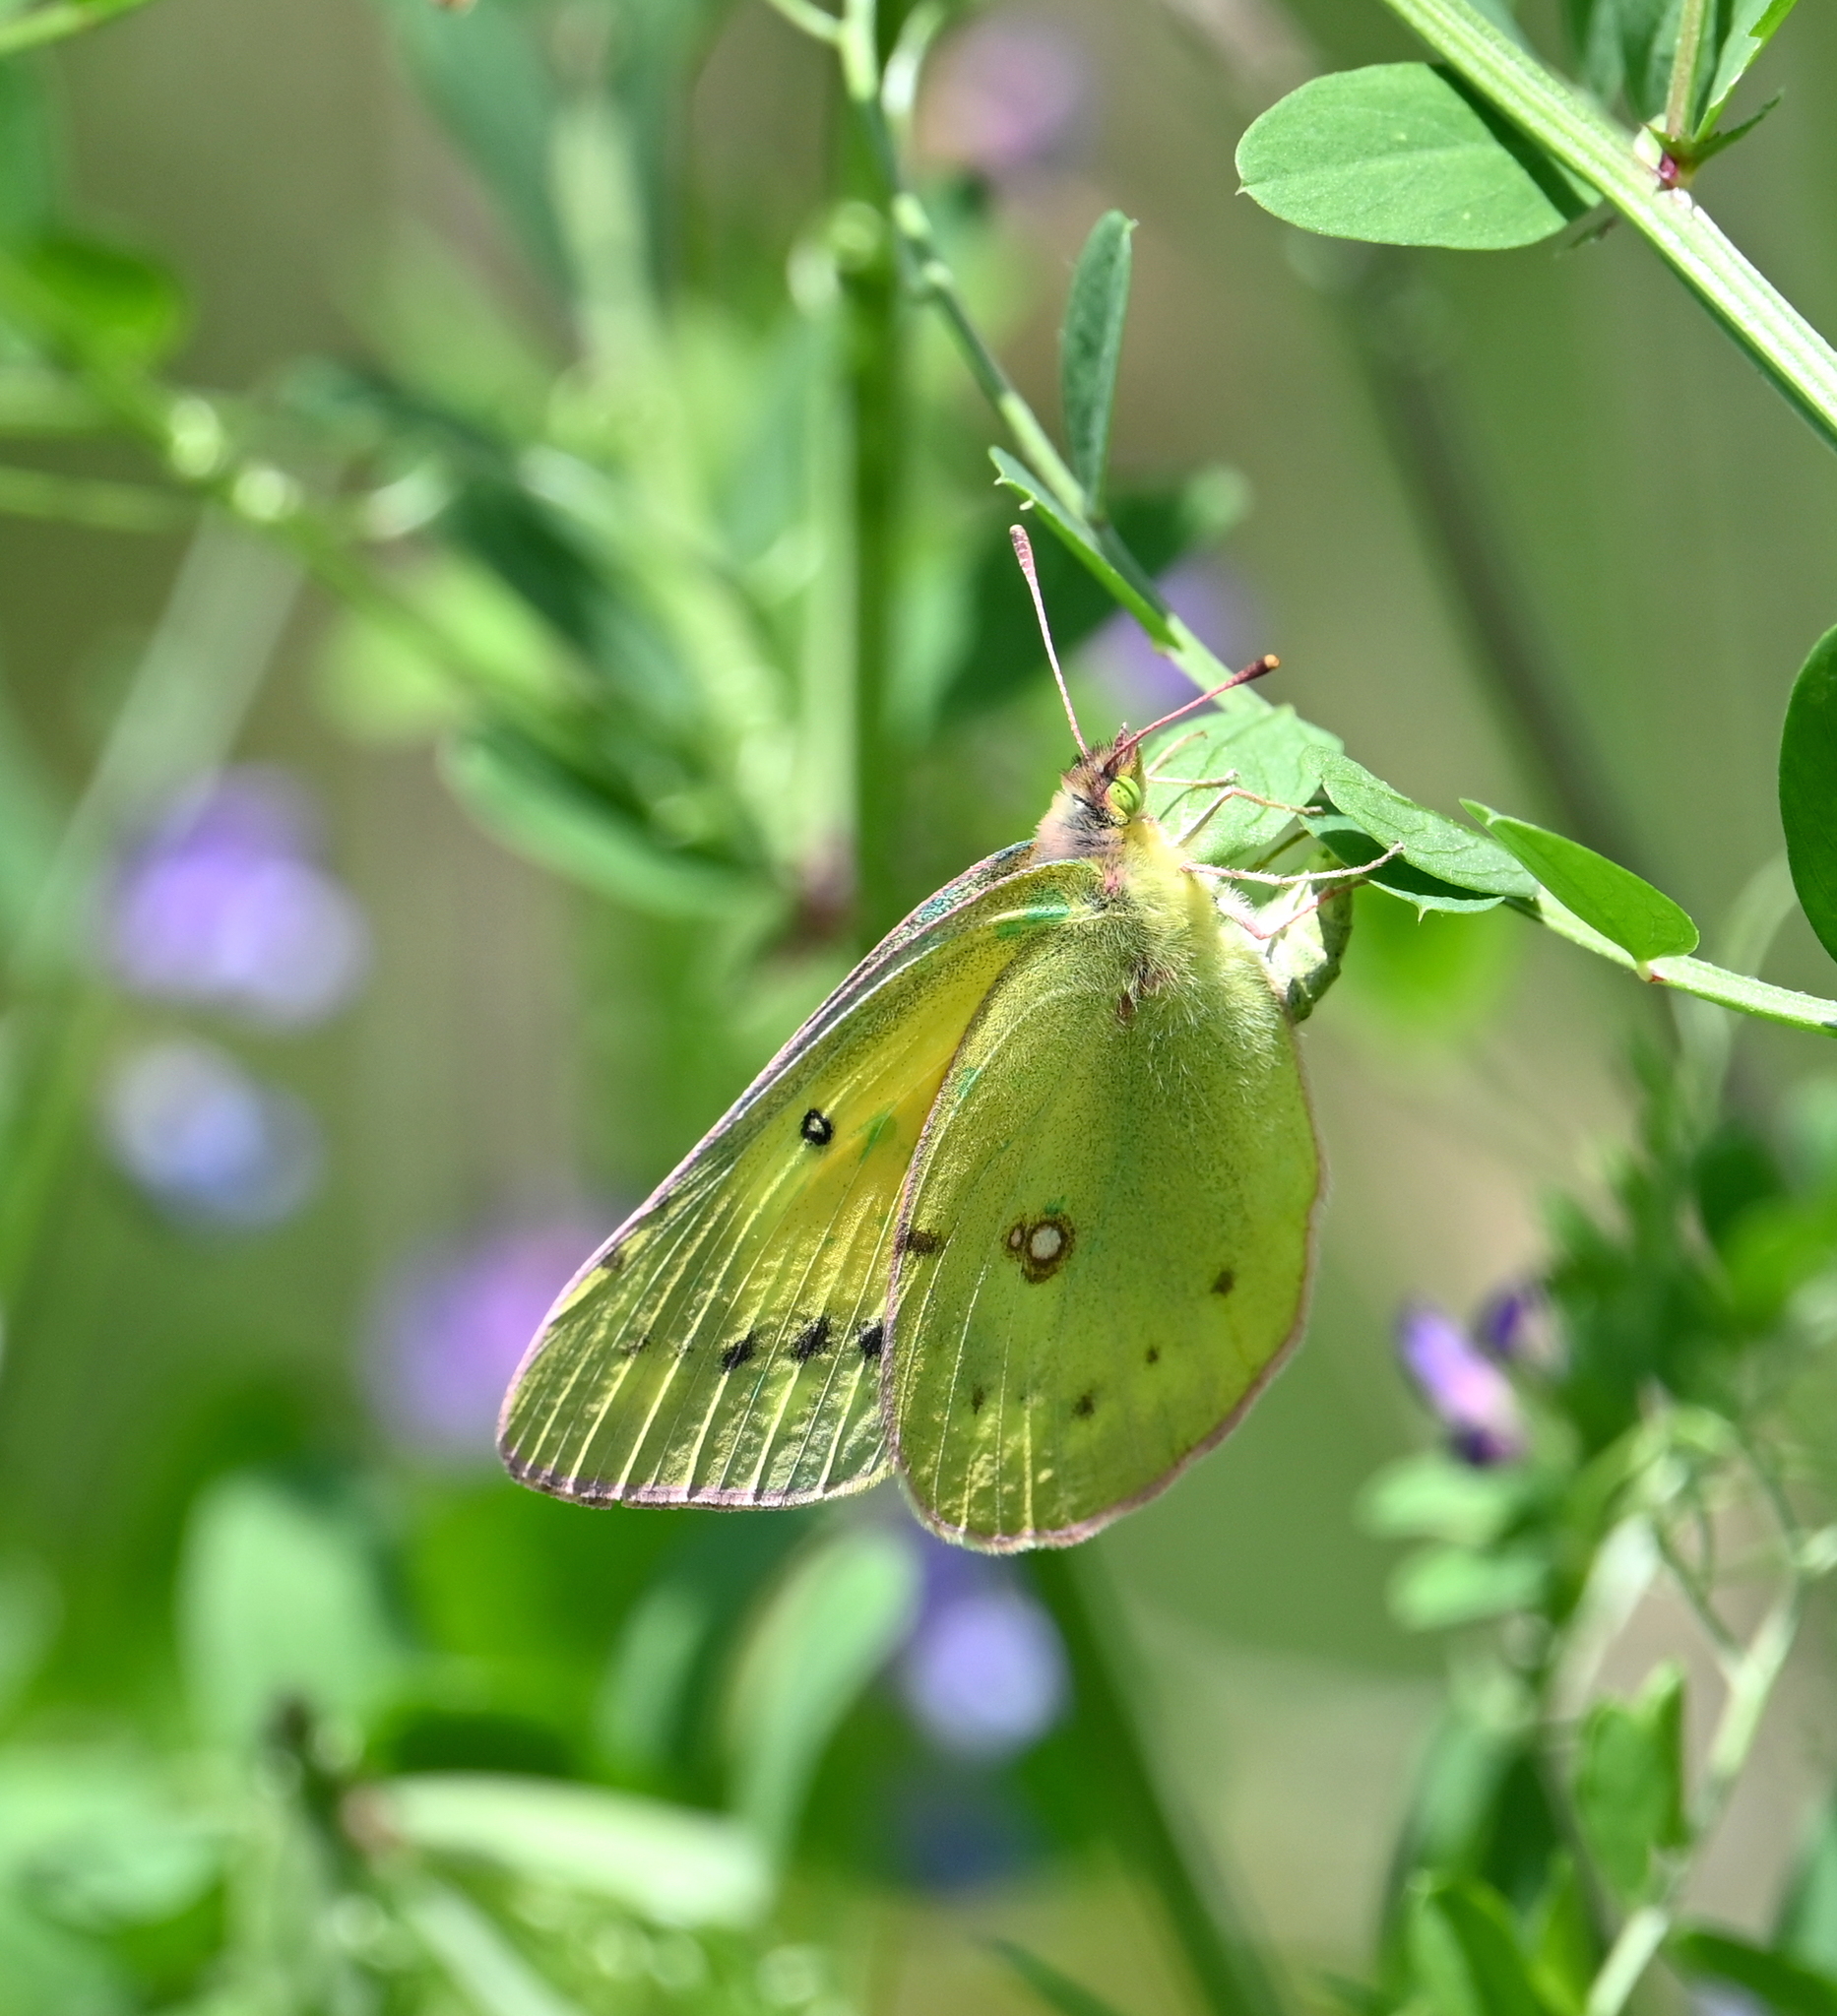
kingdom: Animalia
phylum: Arthropoda
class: Insecta
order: Lepidoptera
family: Pieridae
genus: Colias
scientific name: Colias eurytheme
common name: Alfalfa butterfly
